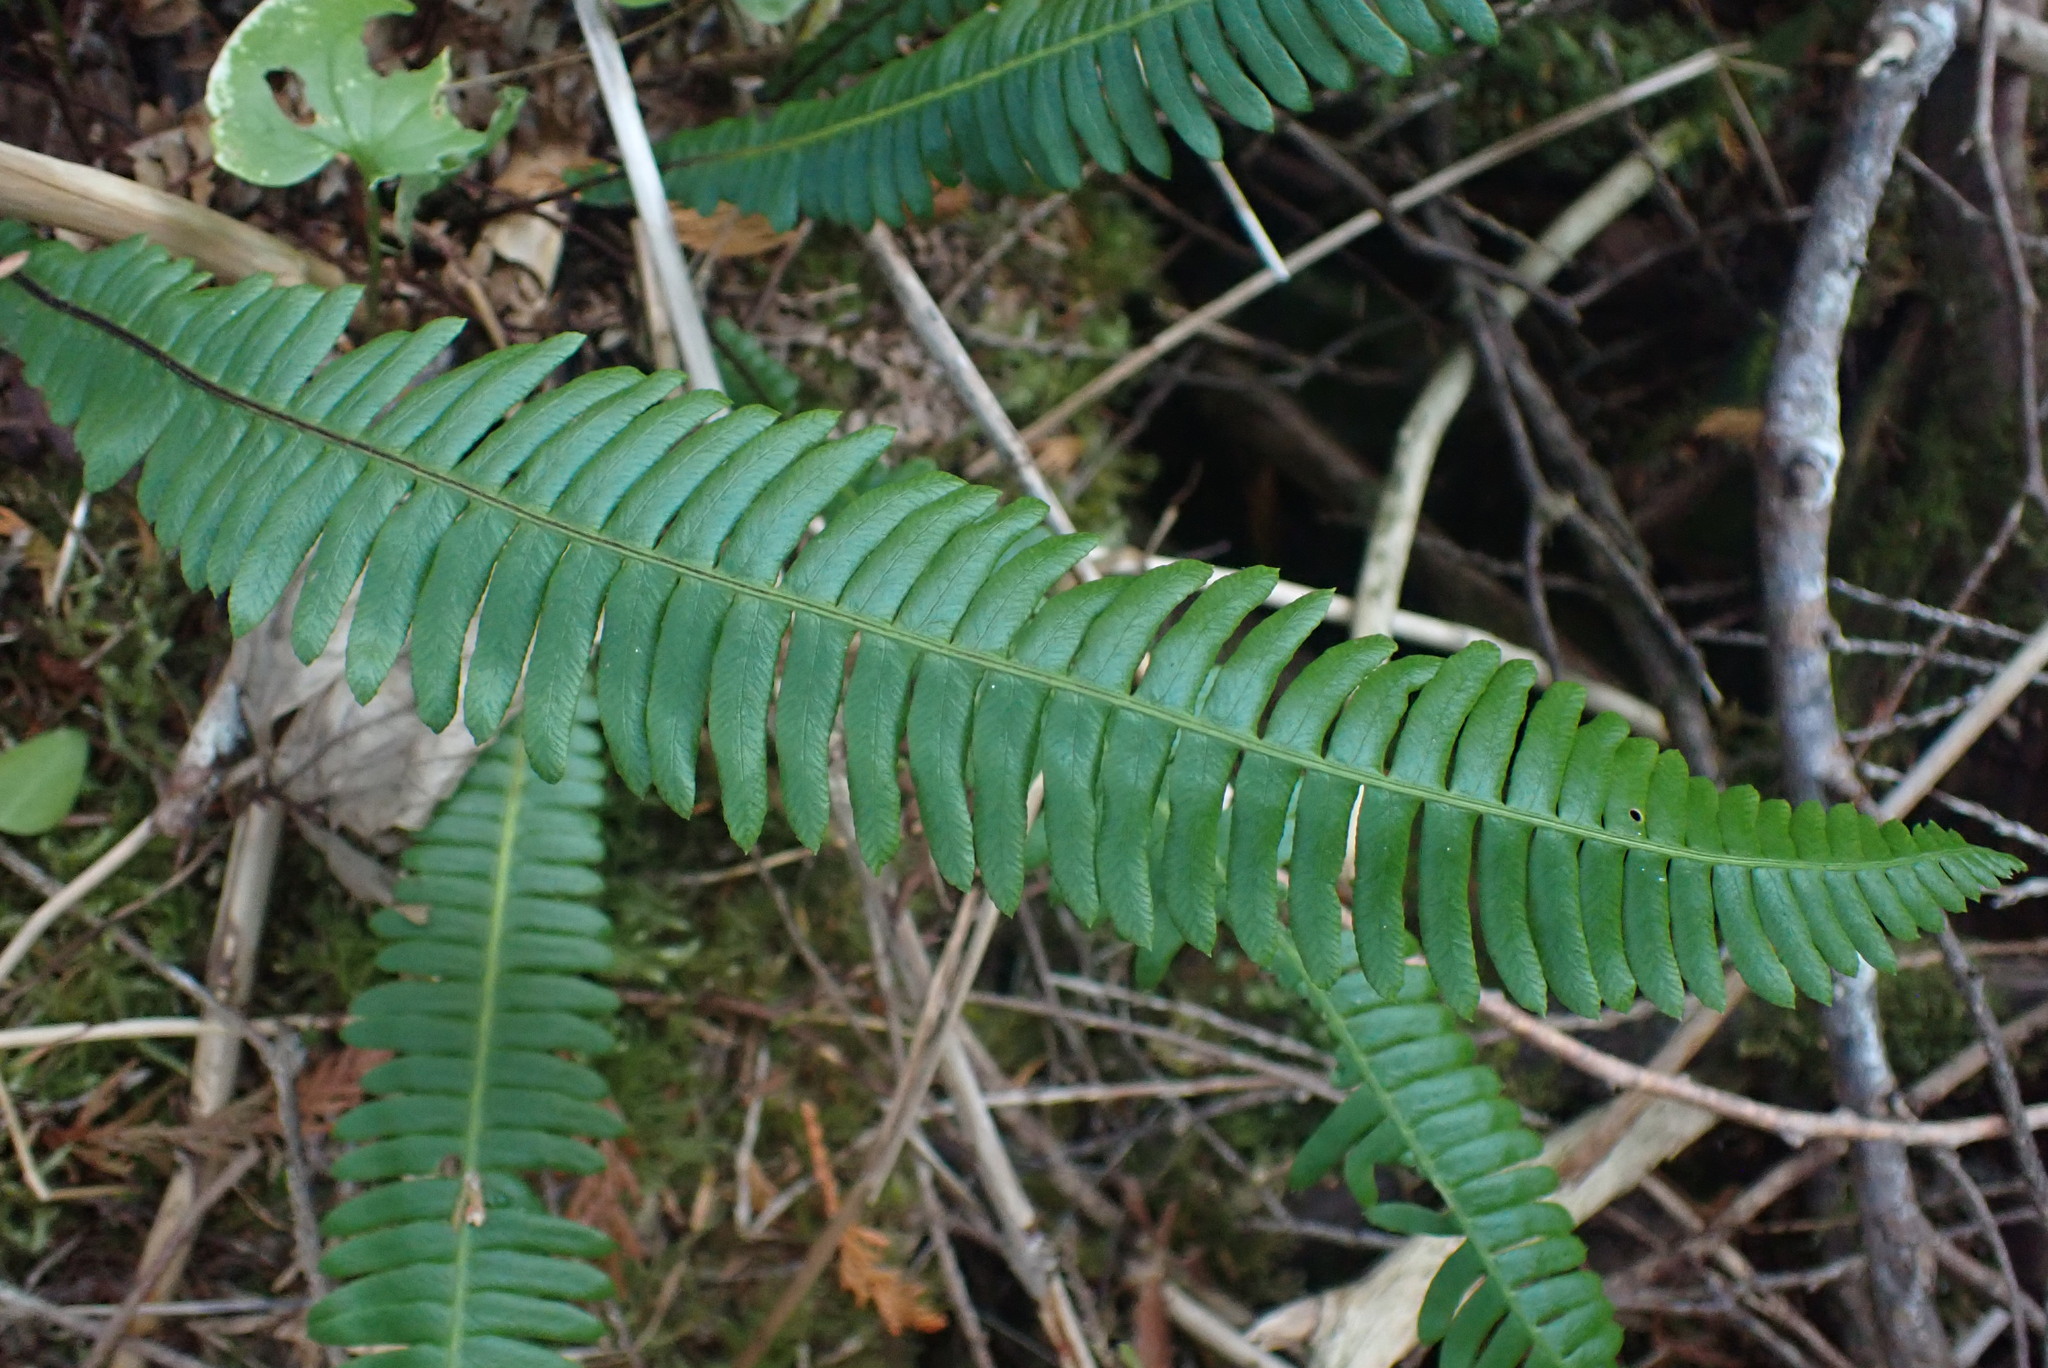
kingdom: Plantae
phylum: Tracheophyta
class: Polypodiopsida
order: Polypodiales
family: Blechnaceae
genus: Struthiopteris
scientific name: Struthiopteris spicant
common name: Deer fern
